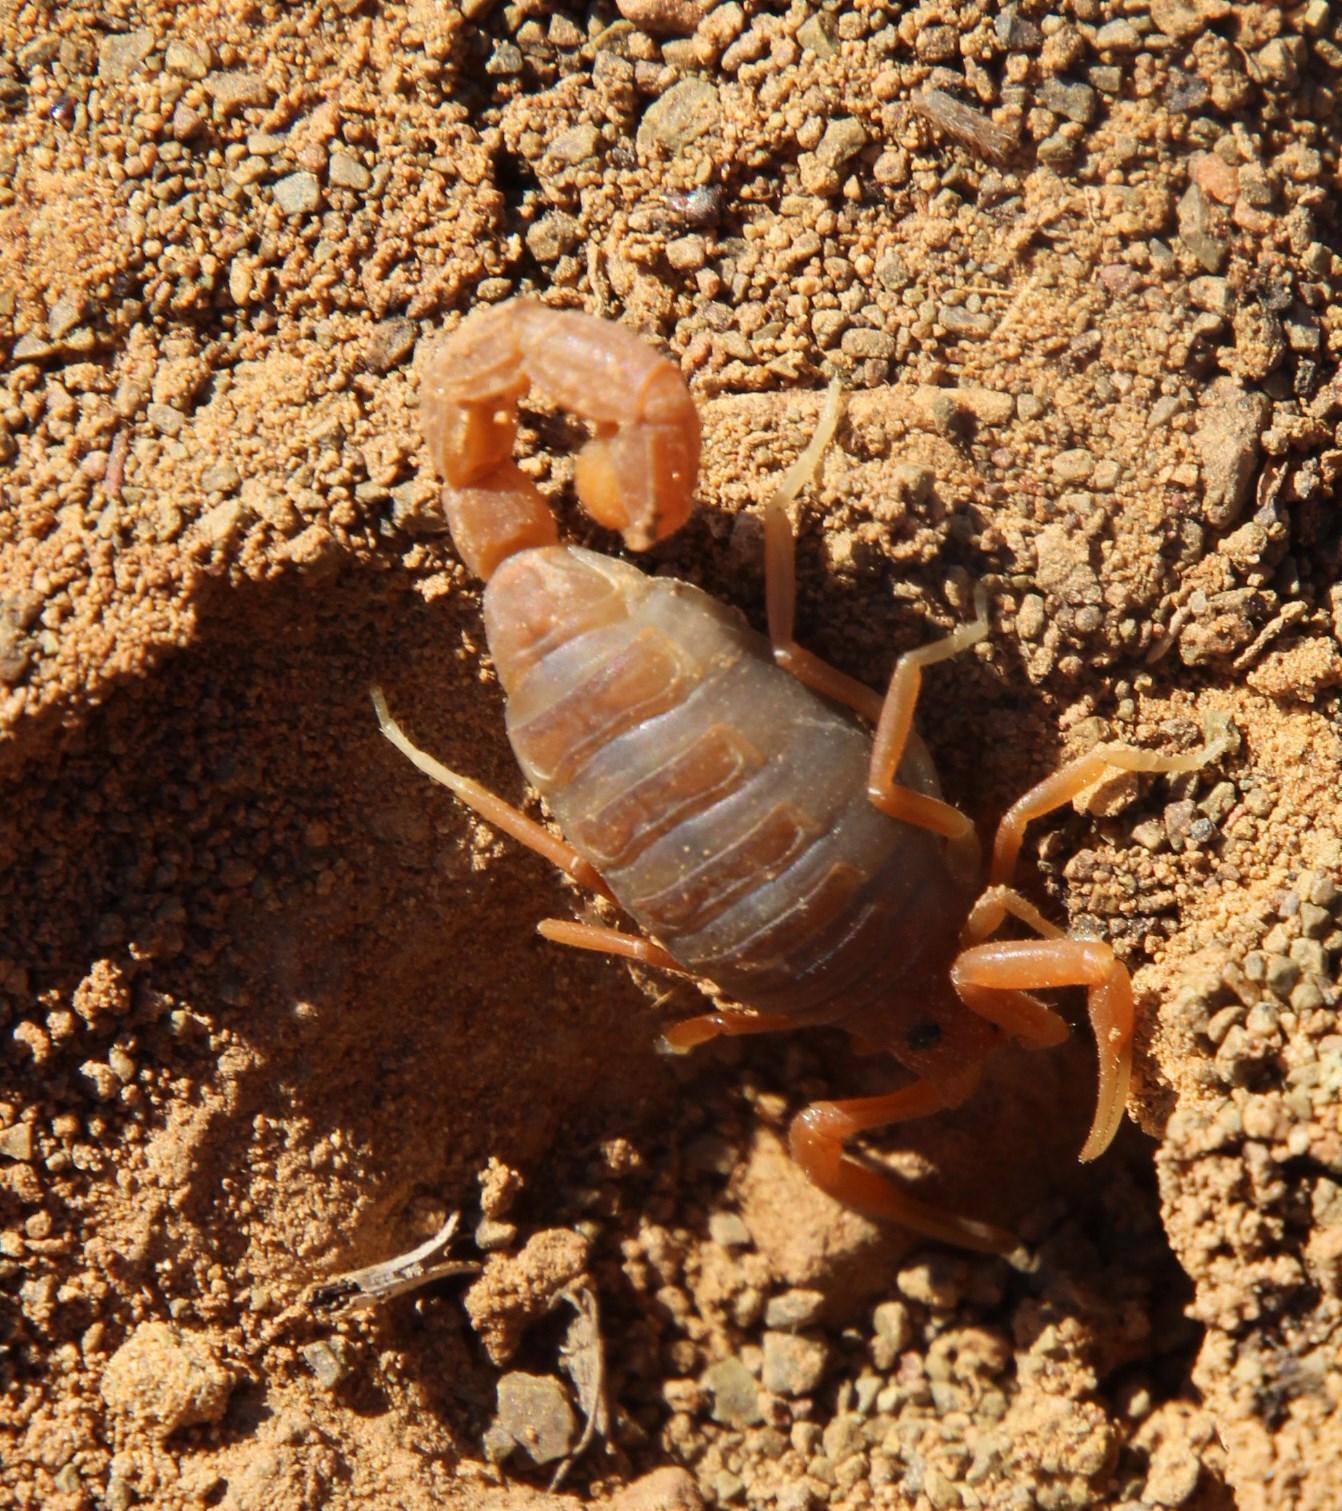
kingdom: Animalia
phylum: Arthropoda
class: Arachnida
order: Scorpiones
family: Buthidae
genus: Parabuthus
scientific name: Parabuthus planicauda
